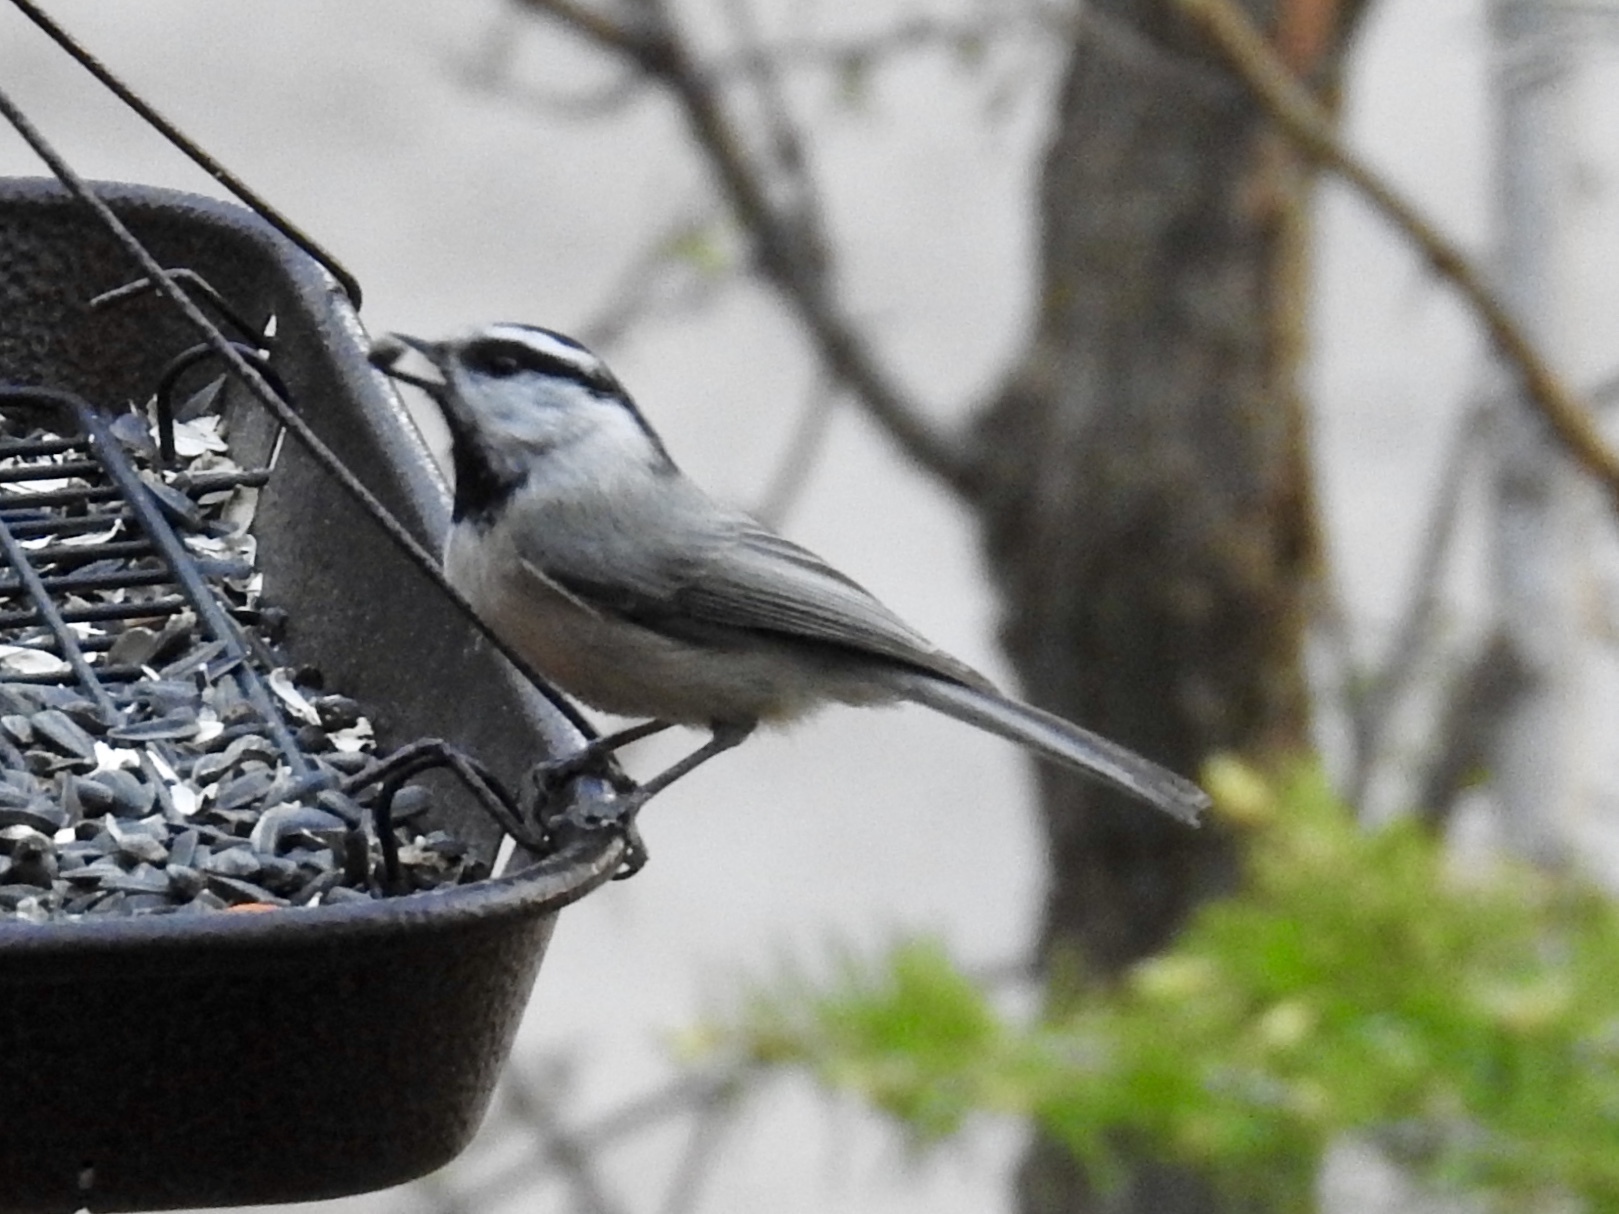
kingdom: Animalia
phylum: Chordata
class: Aves
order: Passeriformes
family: Paridae
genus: Poecile
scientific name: Poecile gambeli
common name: Mountain chickadee
